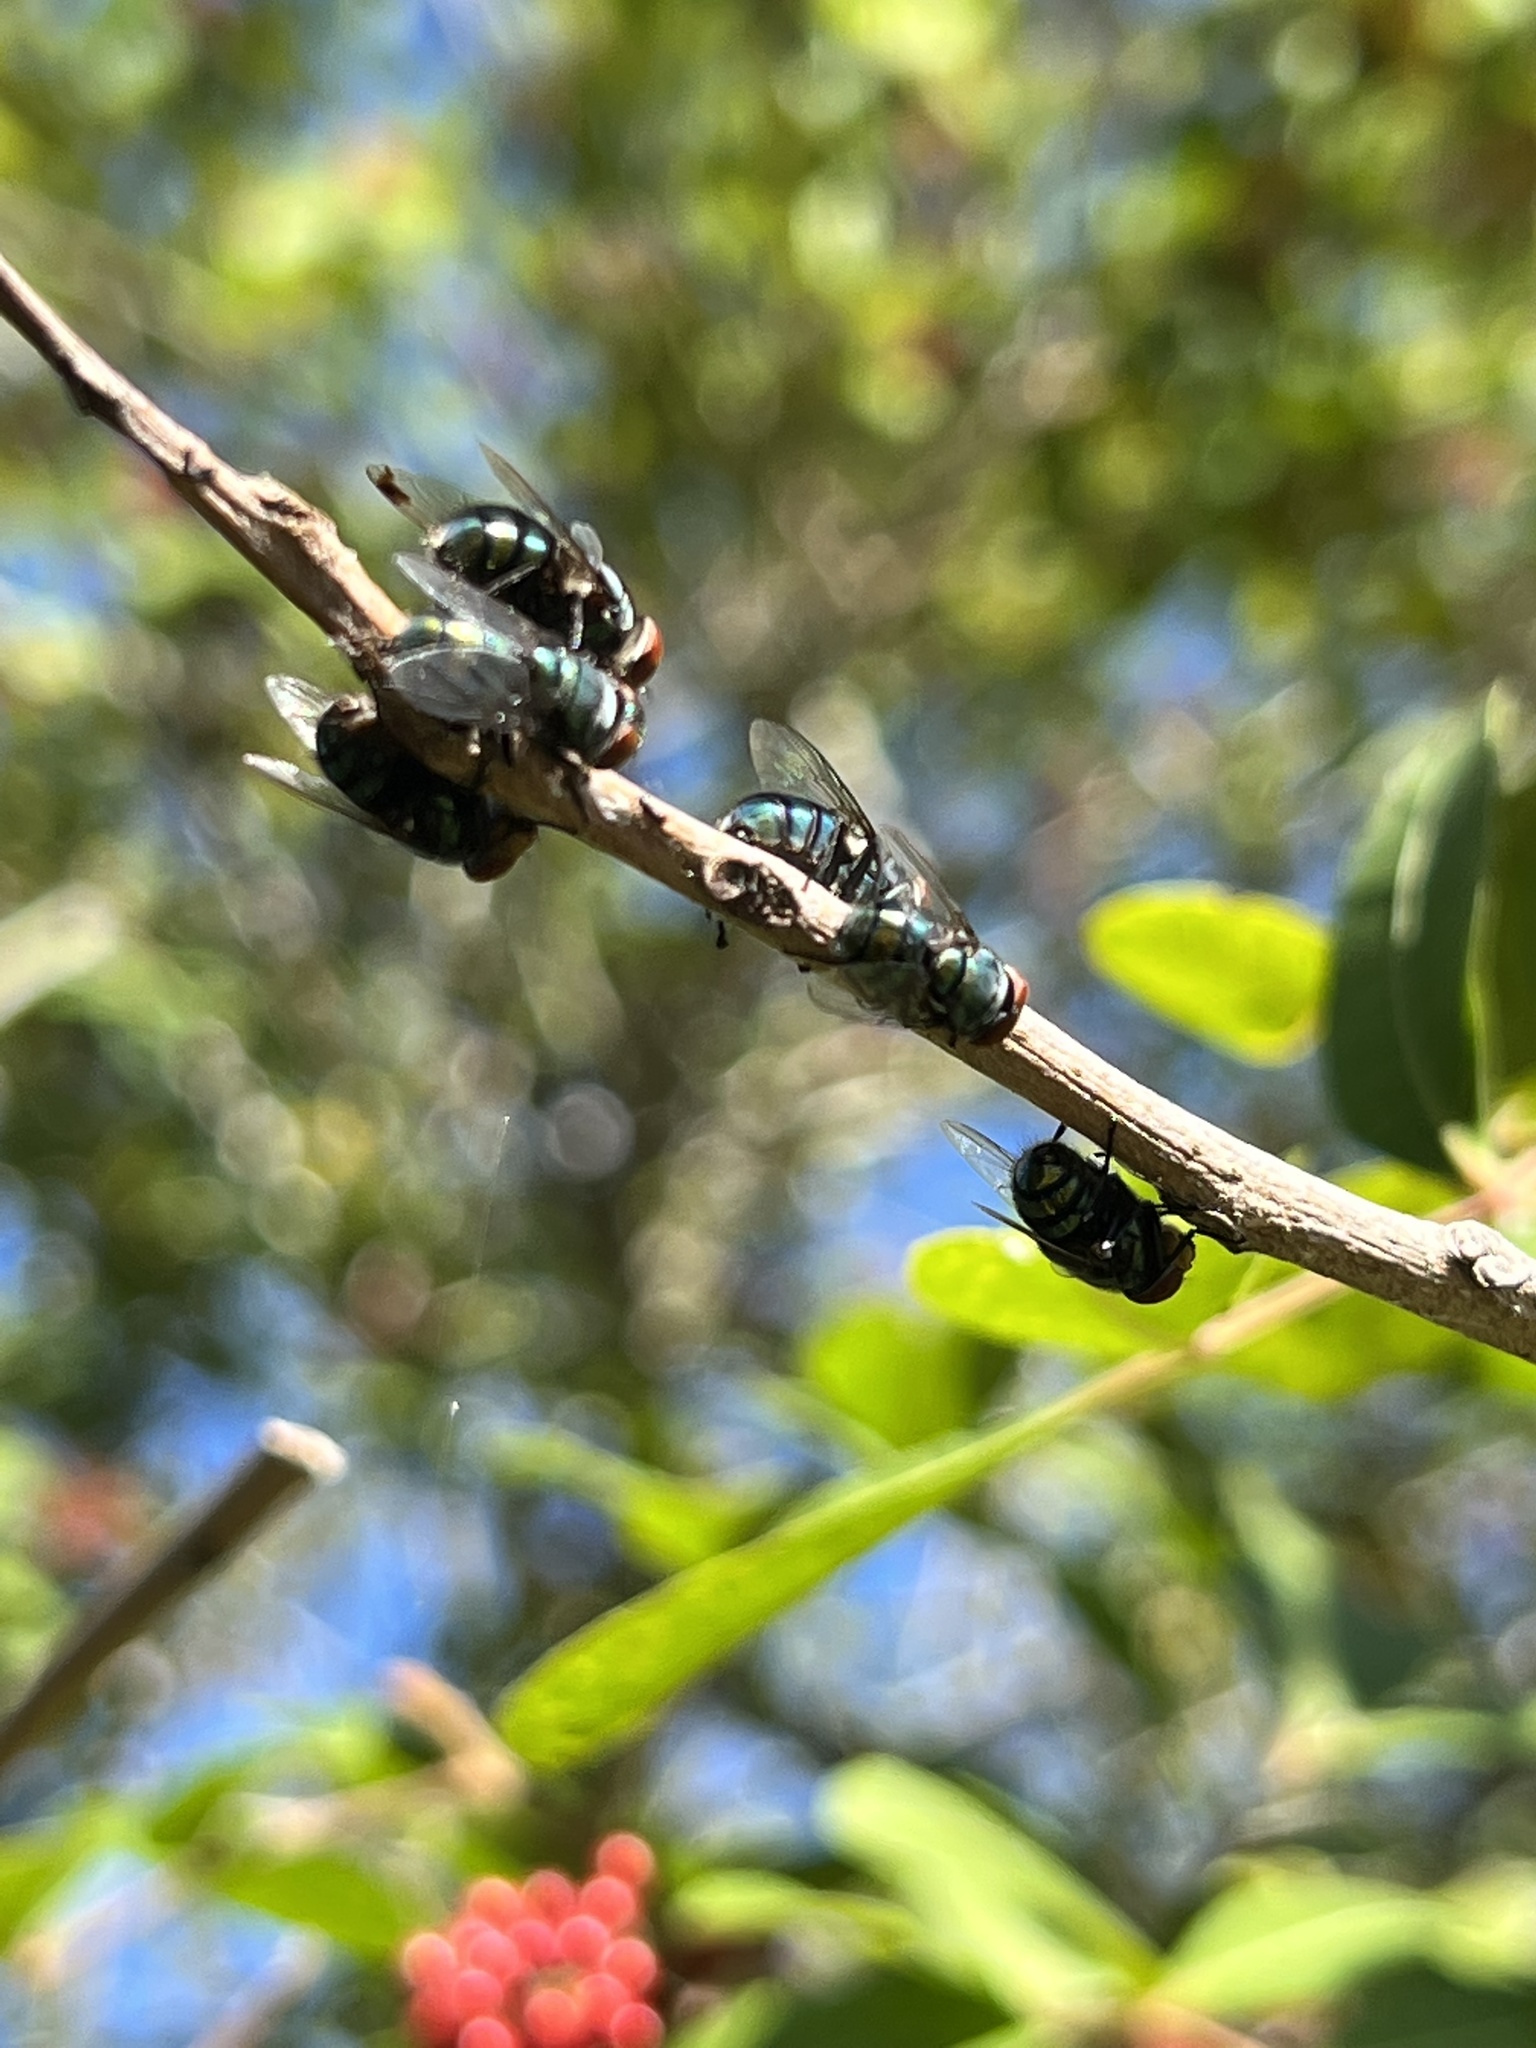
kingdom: Animalia
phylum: Arthropoda
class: Insecta
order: Diptera
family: Calliphoridae
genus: Chrysomya
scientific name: Chrysomya megacephala
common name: Blow fly
